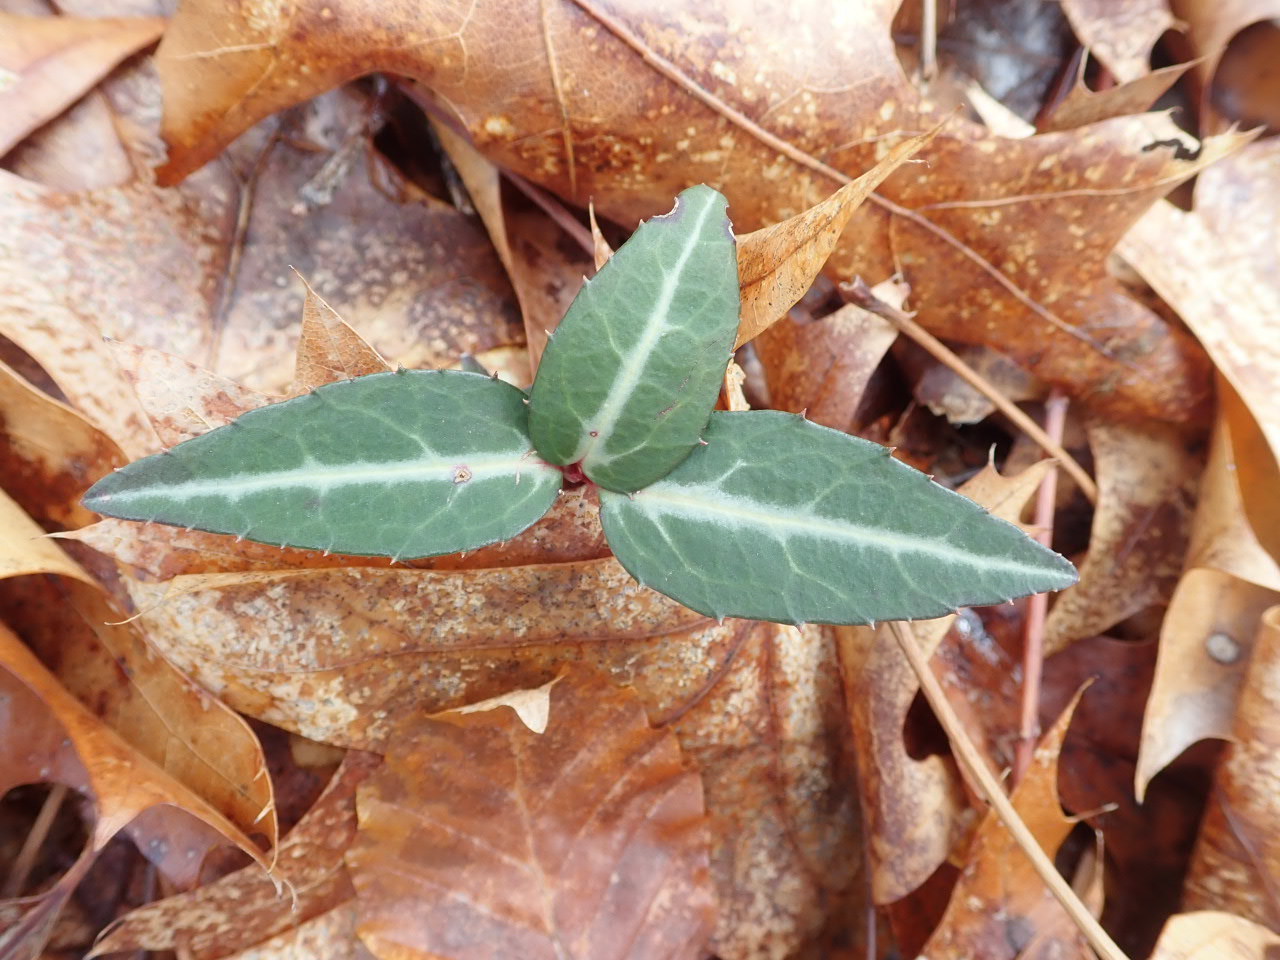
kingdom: Plantae
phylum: Tracheophyta
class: Magnoliopsida
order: Ericales
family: Ericaceae
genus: Chimaphila
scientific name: Chimaphila maculata
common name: Spotted pipsissewa
